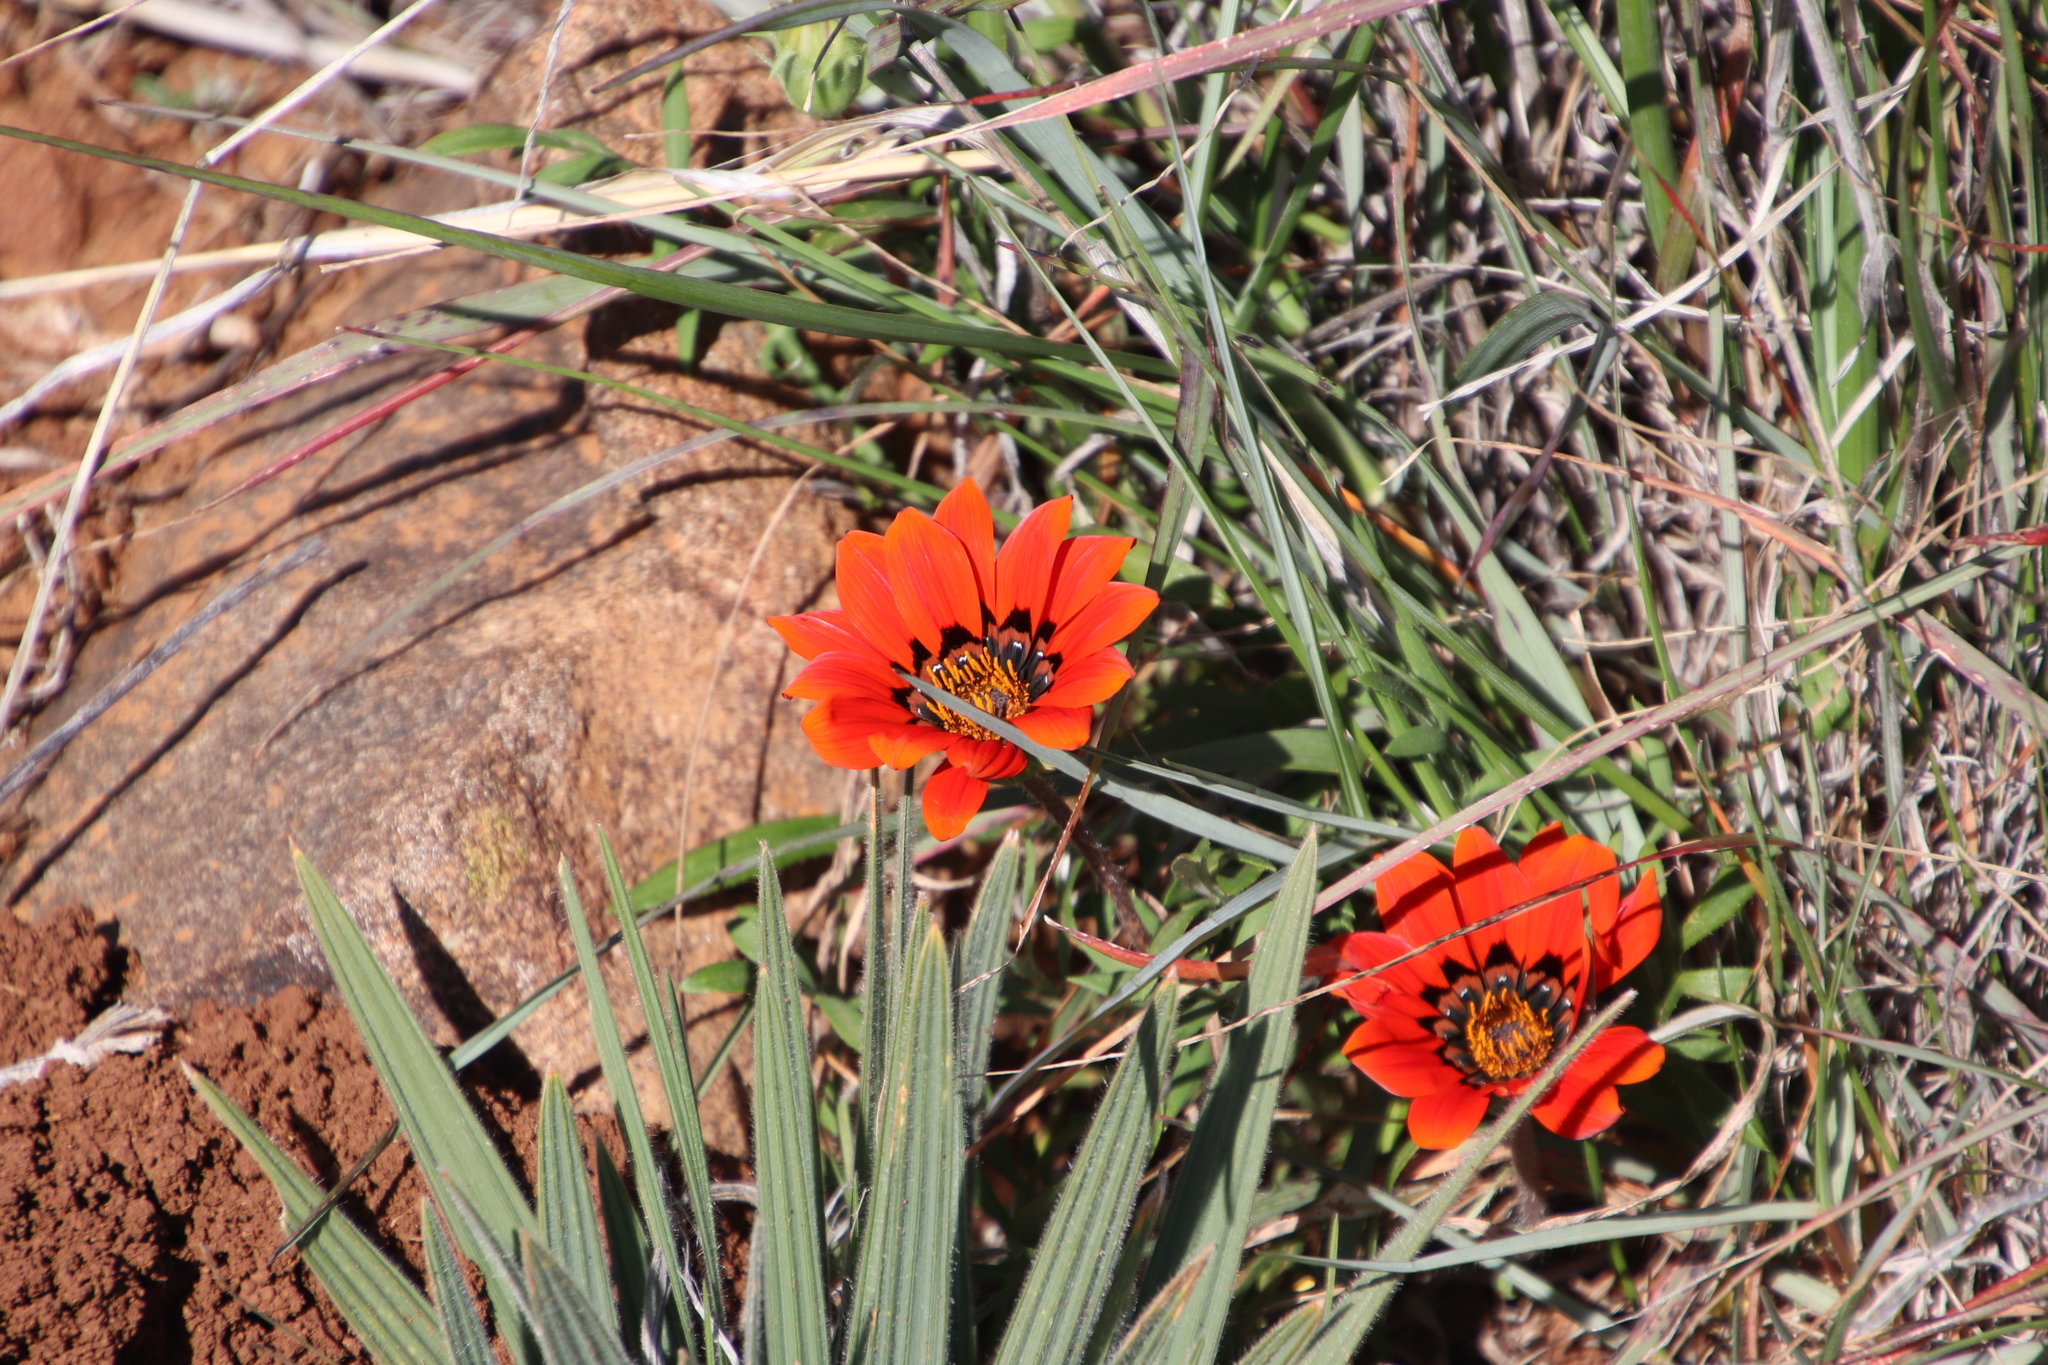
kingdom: Plantae
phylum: Tracheophyta
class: Magnoliopsida
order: Asterales
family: Asteraceae
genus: Gazania
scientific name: Gazania rigida
